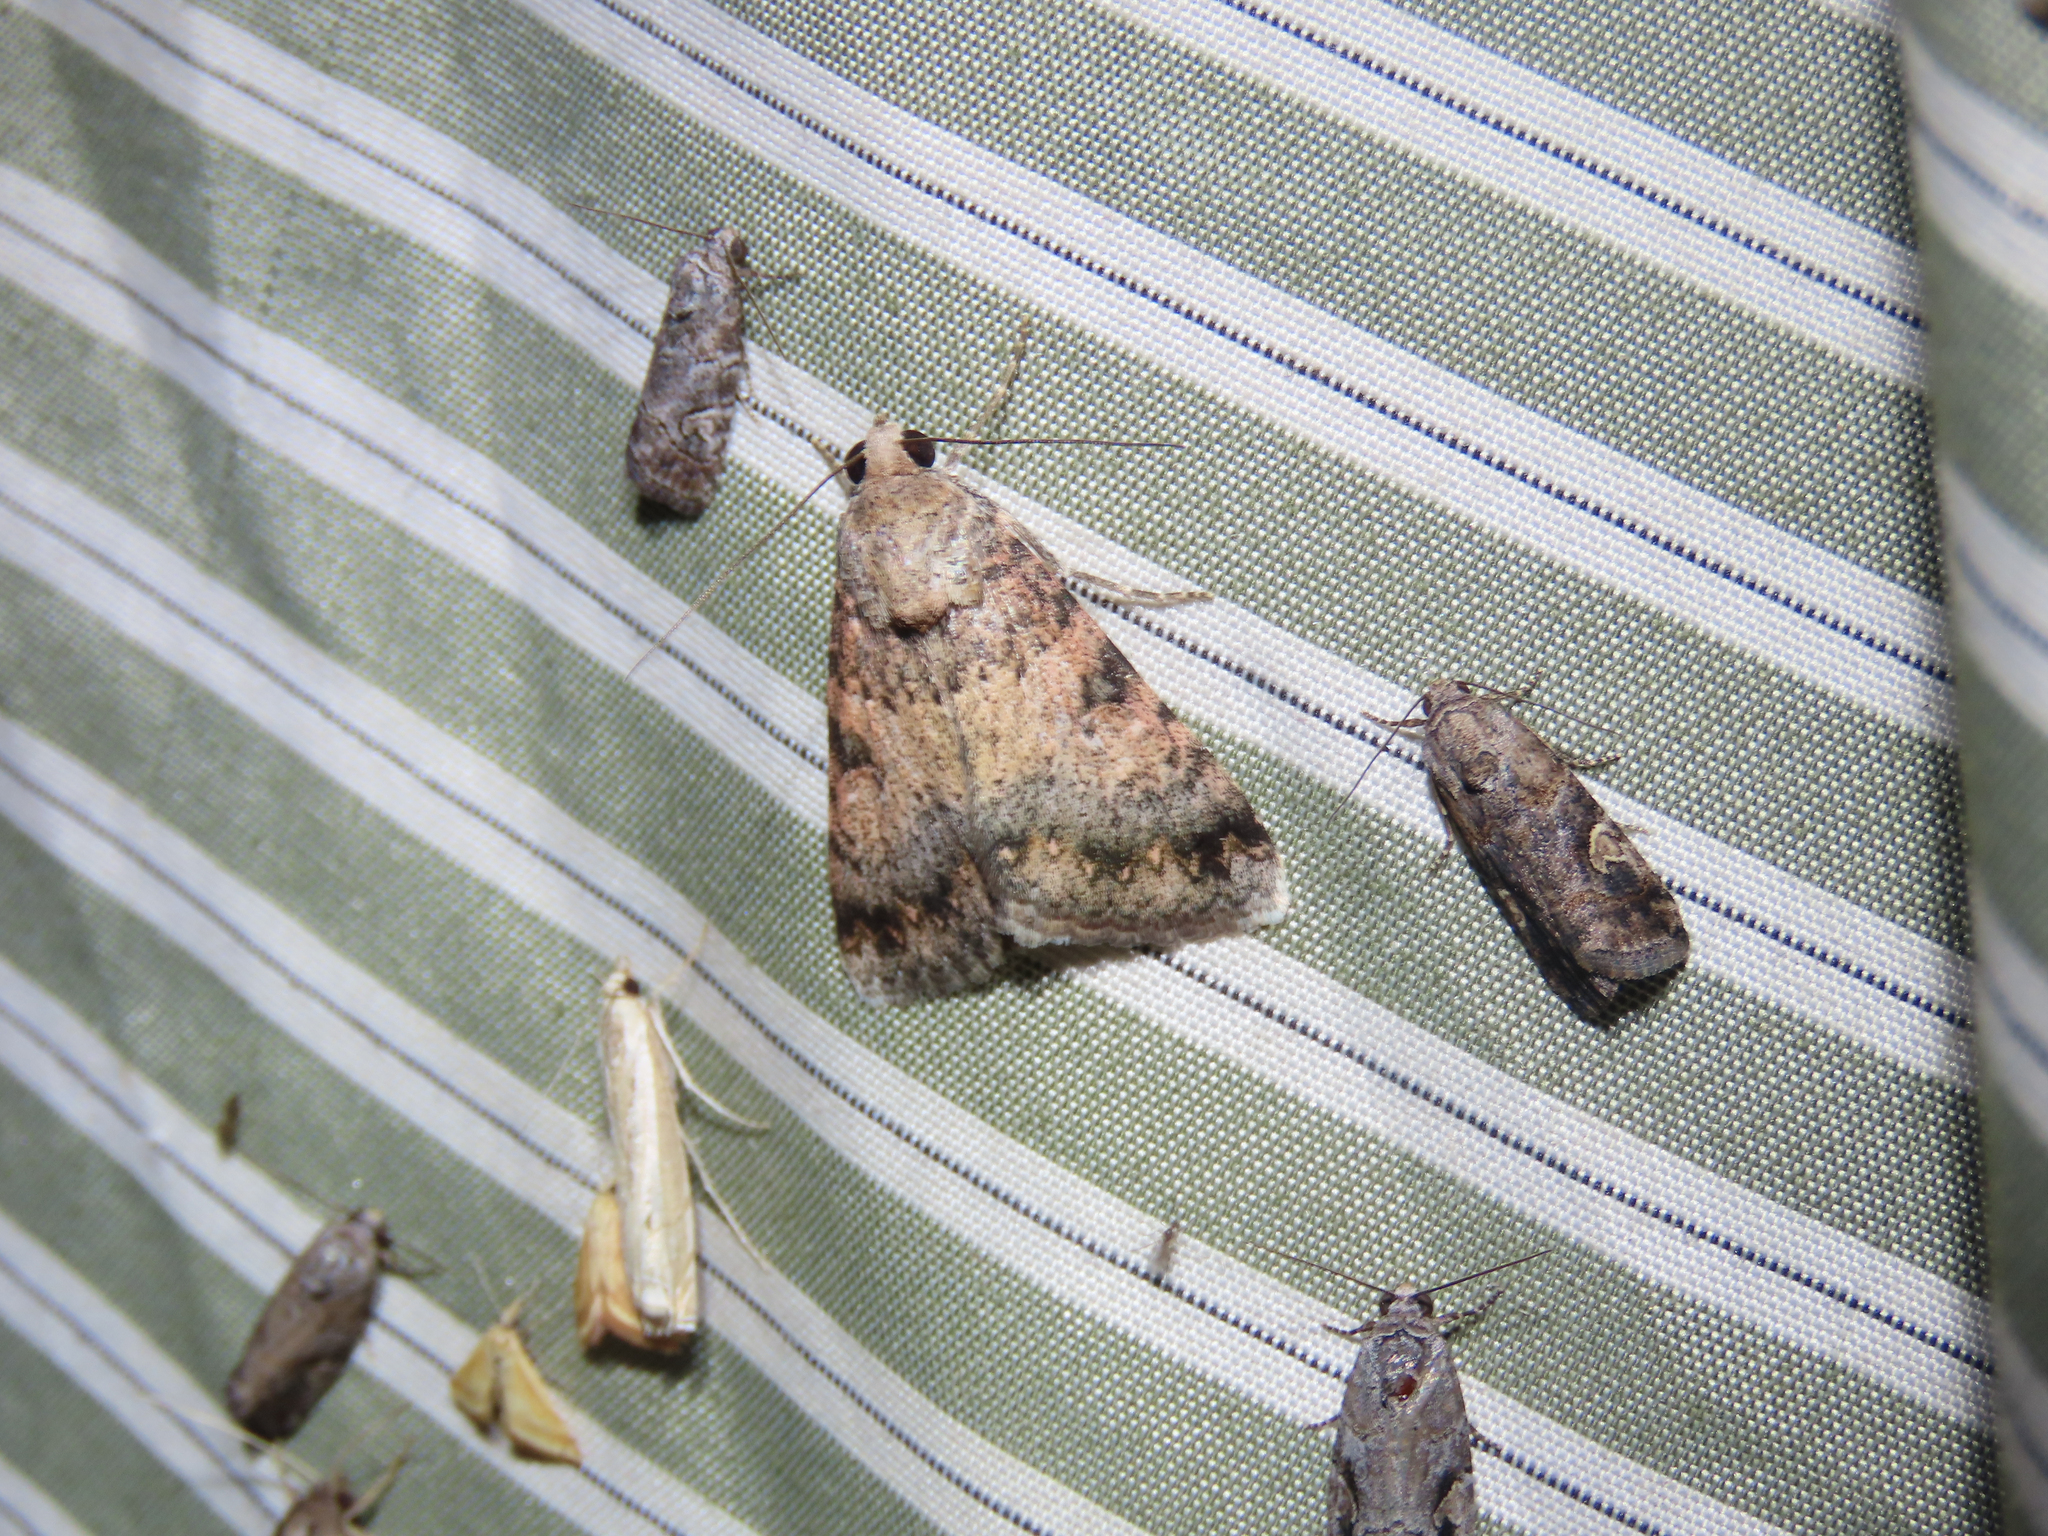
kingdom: Animalia
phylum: Arthropoda
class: Insecta
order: Lepidoptera
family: Erebidae
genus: Melipotis
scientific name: Melipotis jucunda
